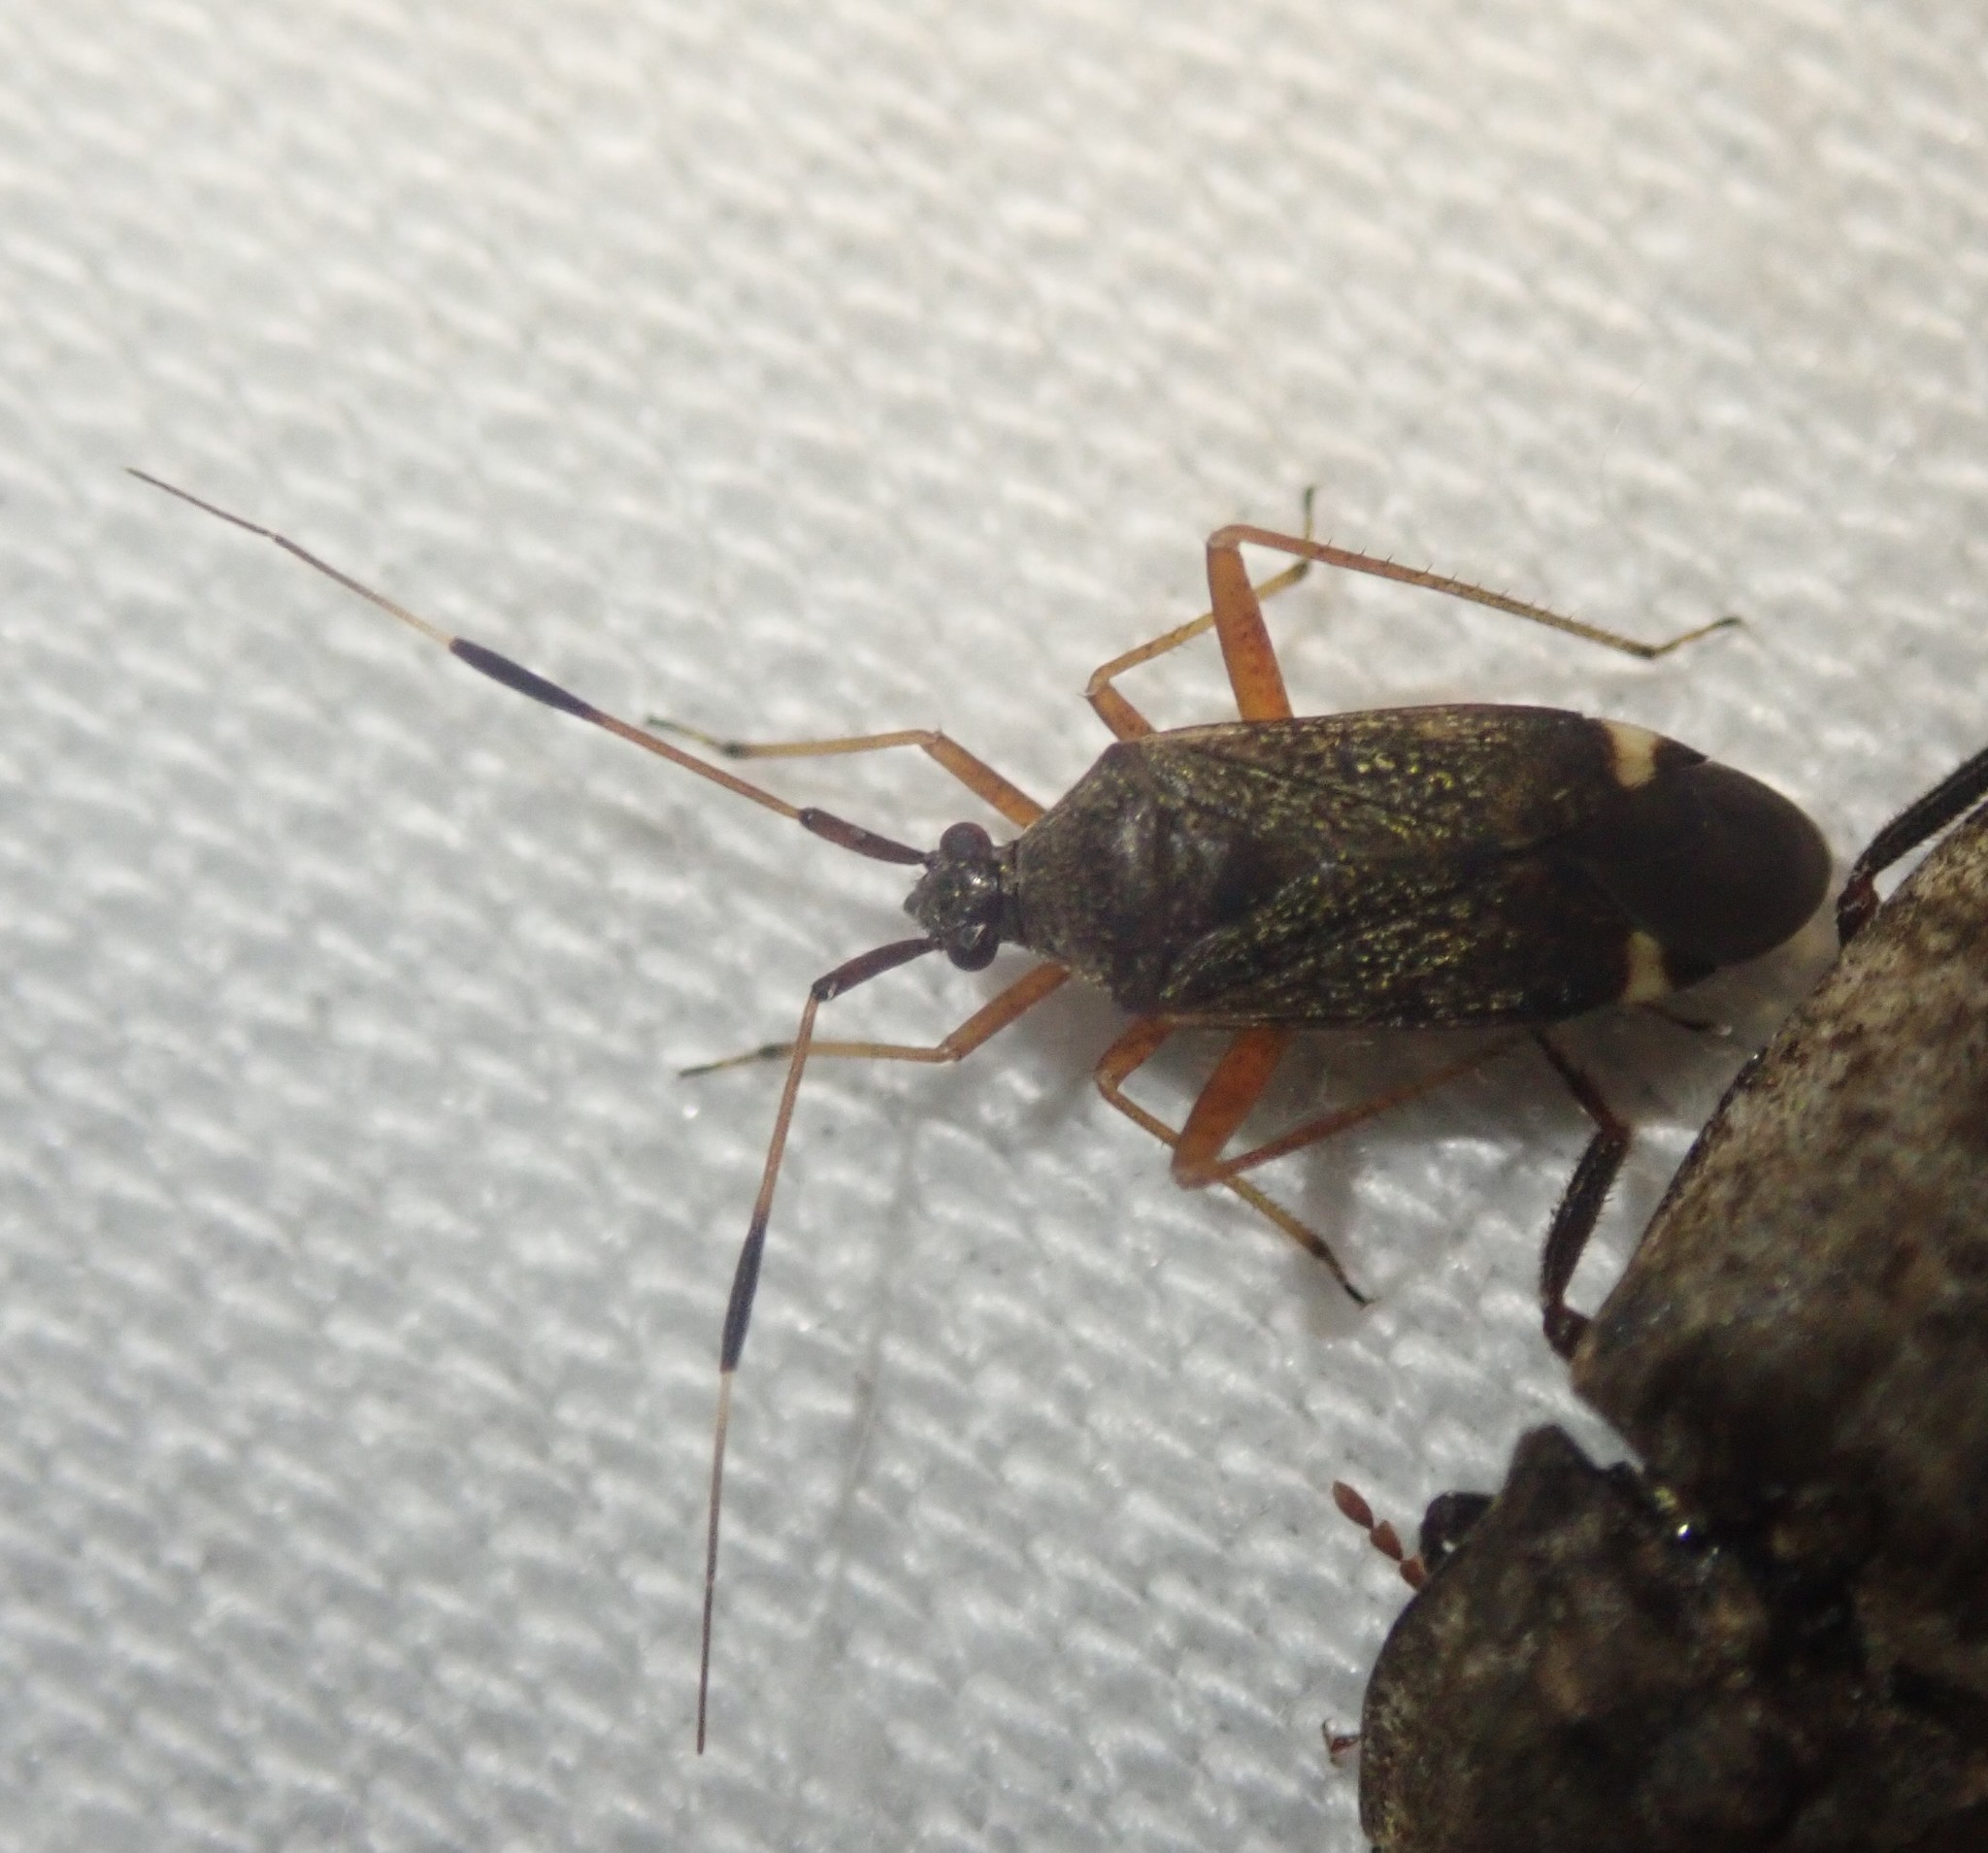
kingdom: Animalia
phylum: Arthropoda
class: Insecta
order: Hemiptera
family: Miridae
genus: Closterotomus
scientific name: Closterotomus biclavatus
